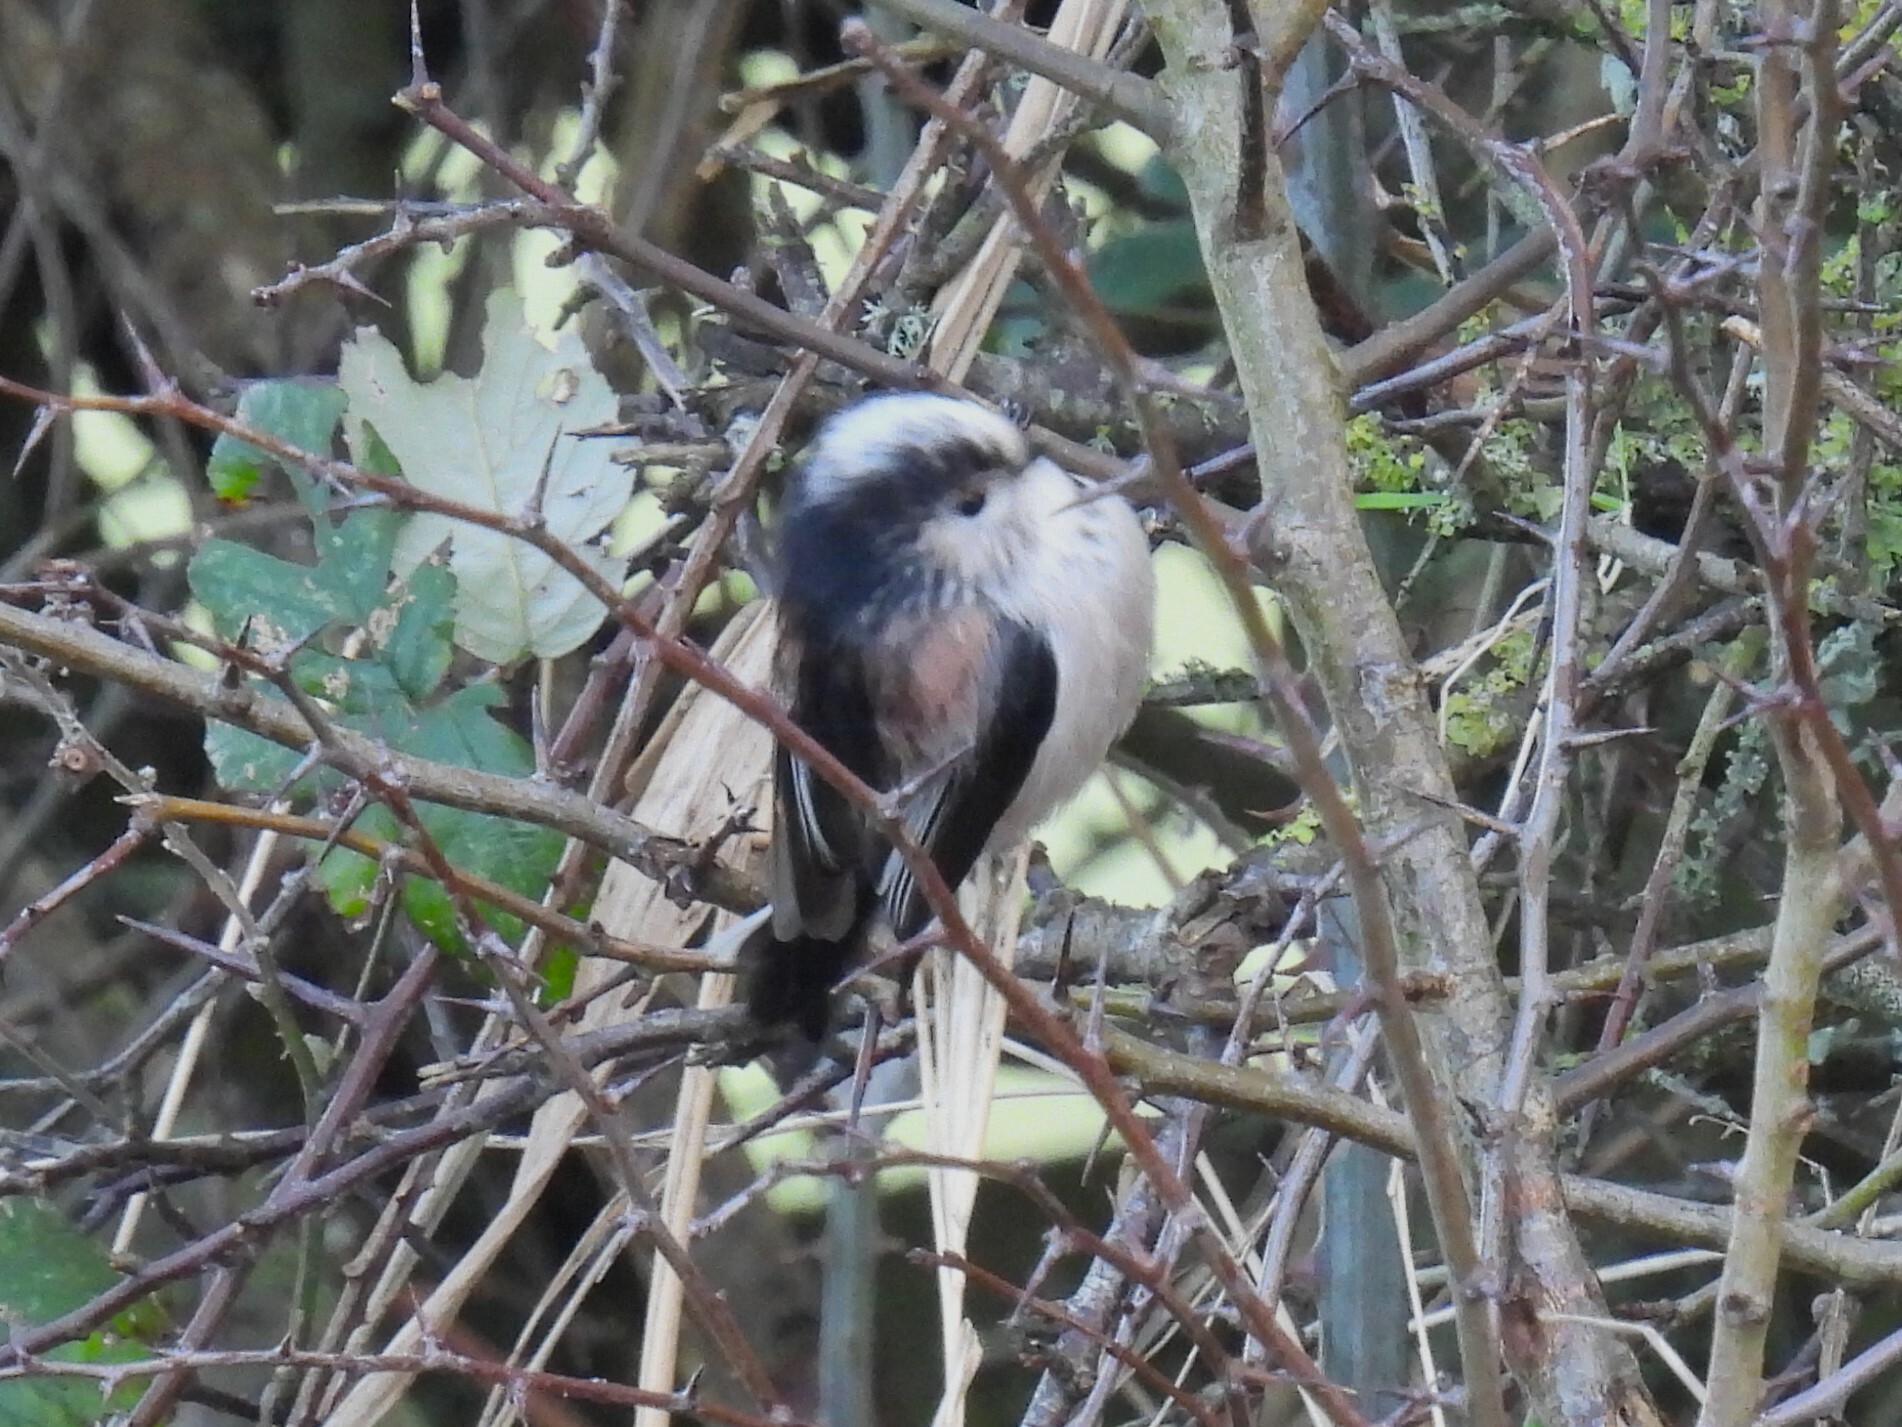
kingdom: Animalia
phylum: Chordata
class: Aves
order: Passeriformes
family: Aegithalidae
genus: Aegithalos
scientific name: Aegithalos caudatus
